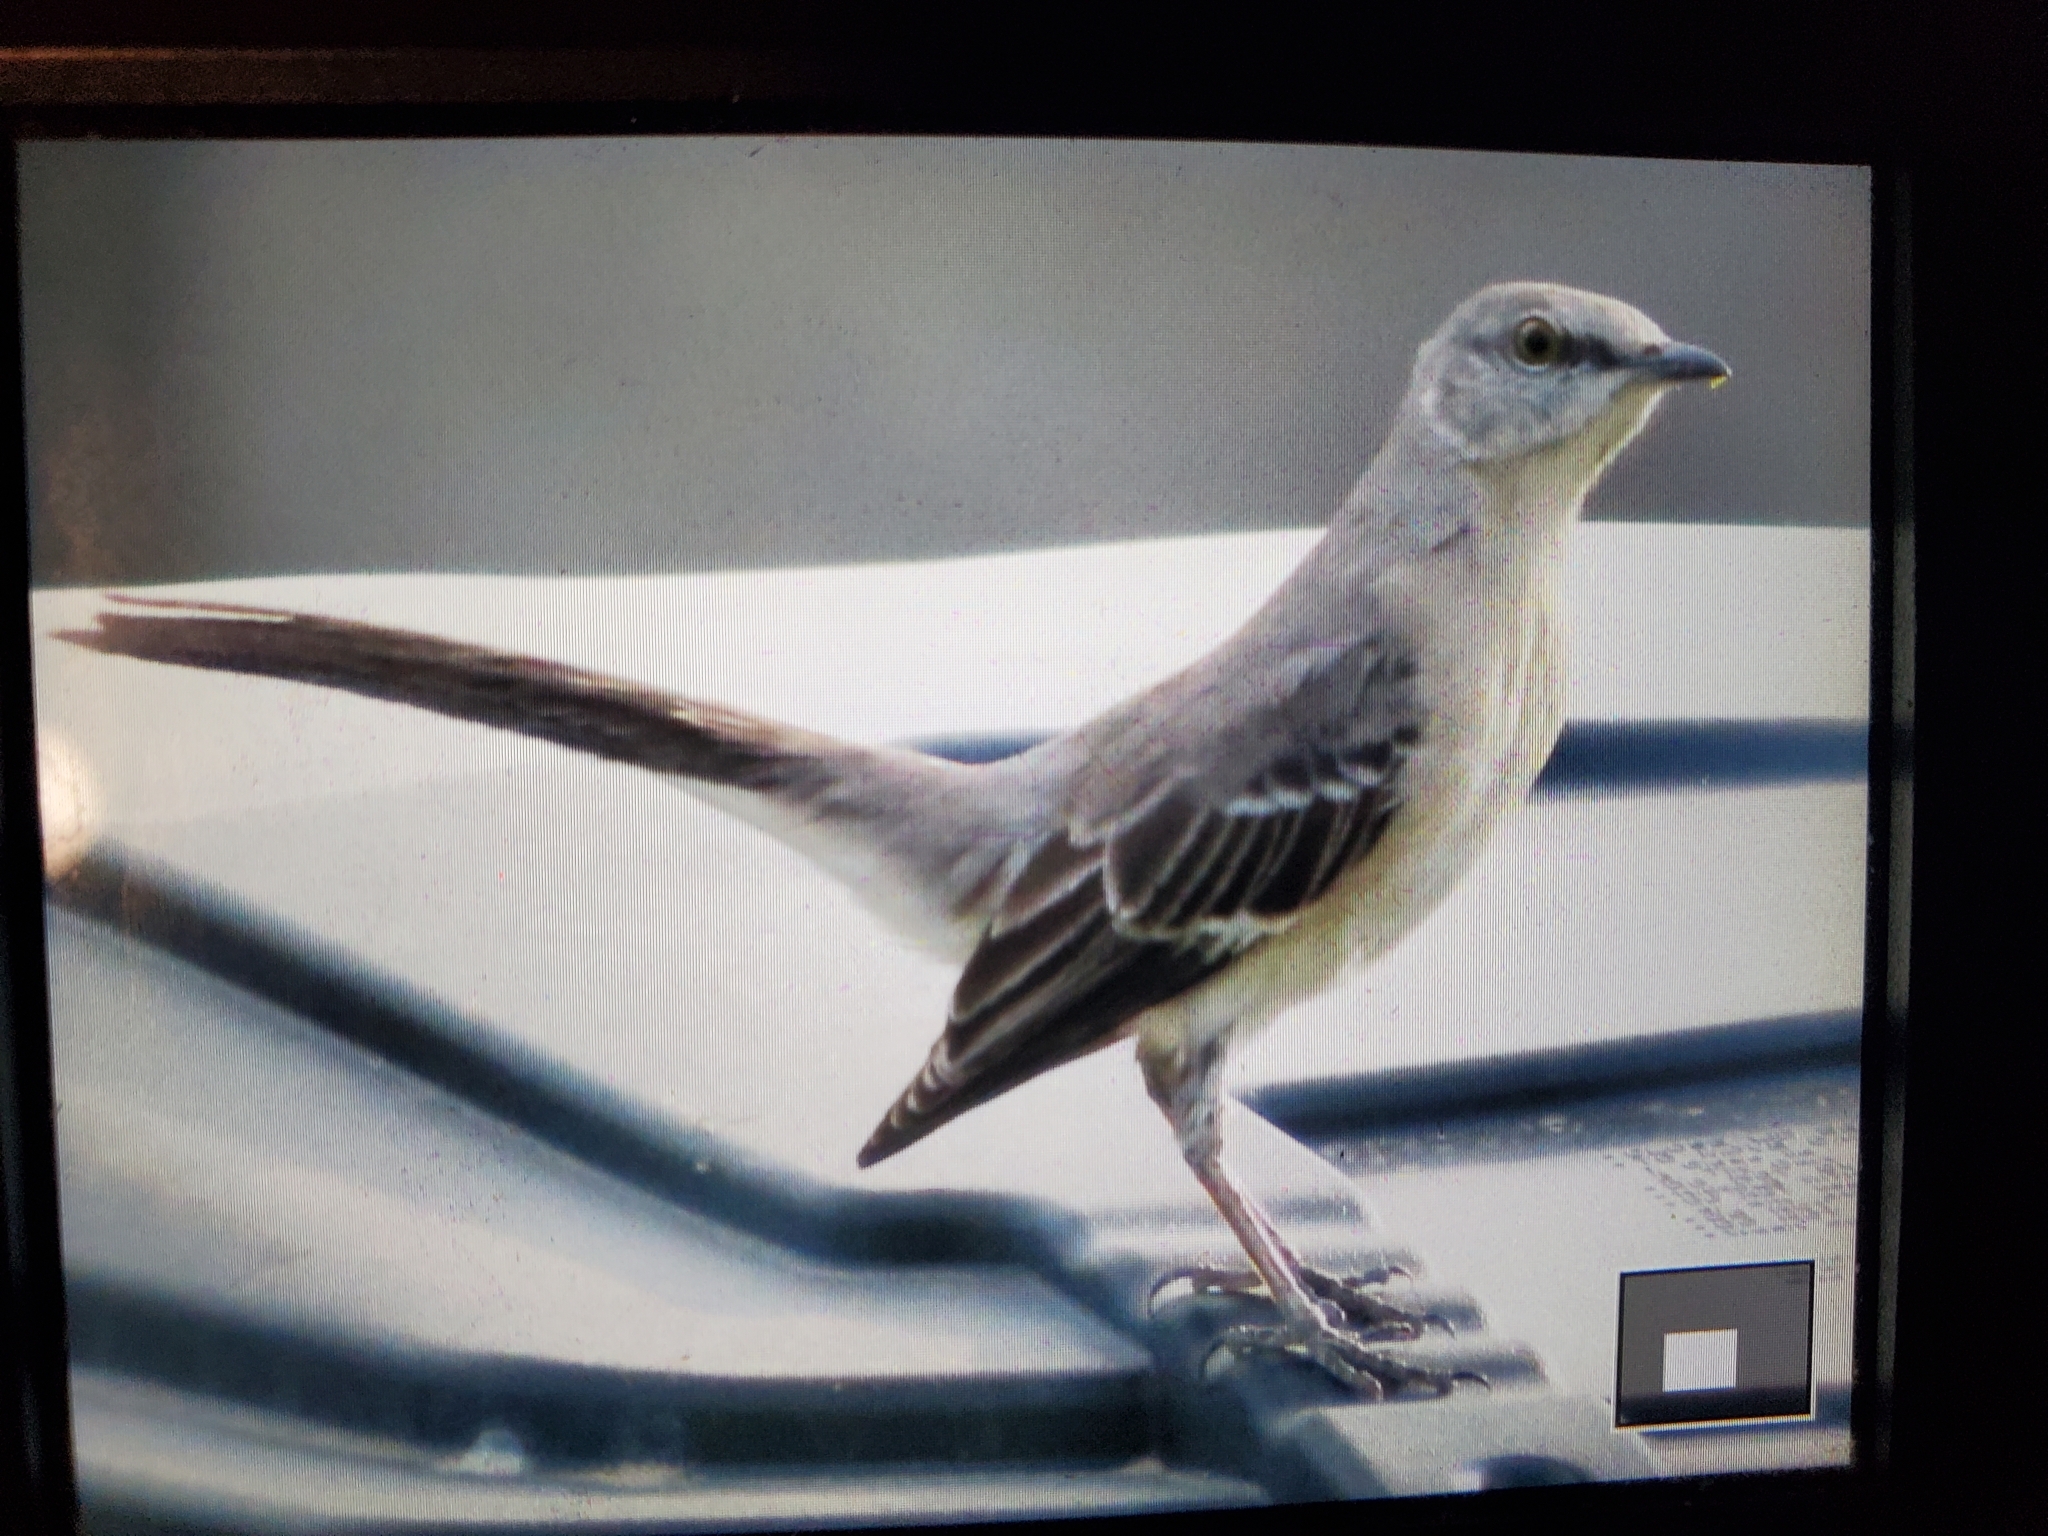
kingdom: Animalia
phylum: Chordata
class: Aves
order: Passeriformes
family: Mimidae
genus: Mimus
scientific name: Mimus polyglottos
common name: Northern mockingbird
